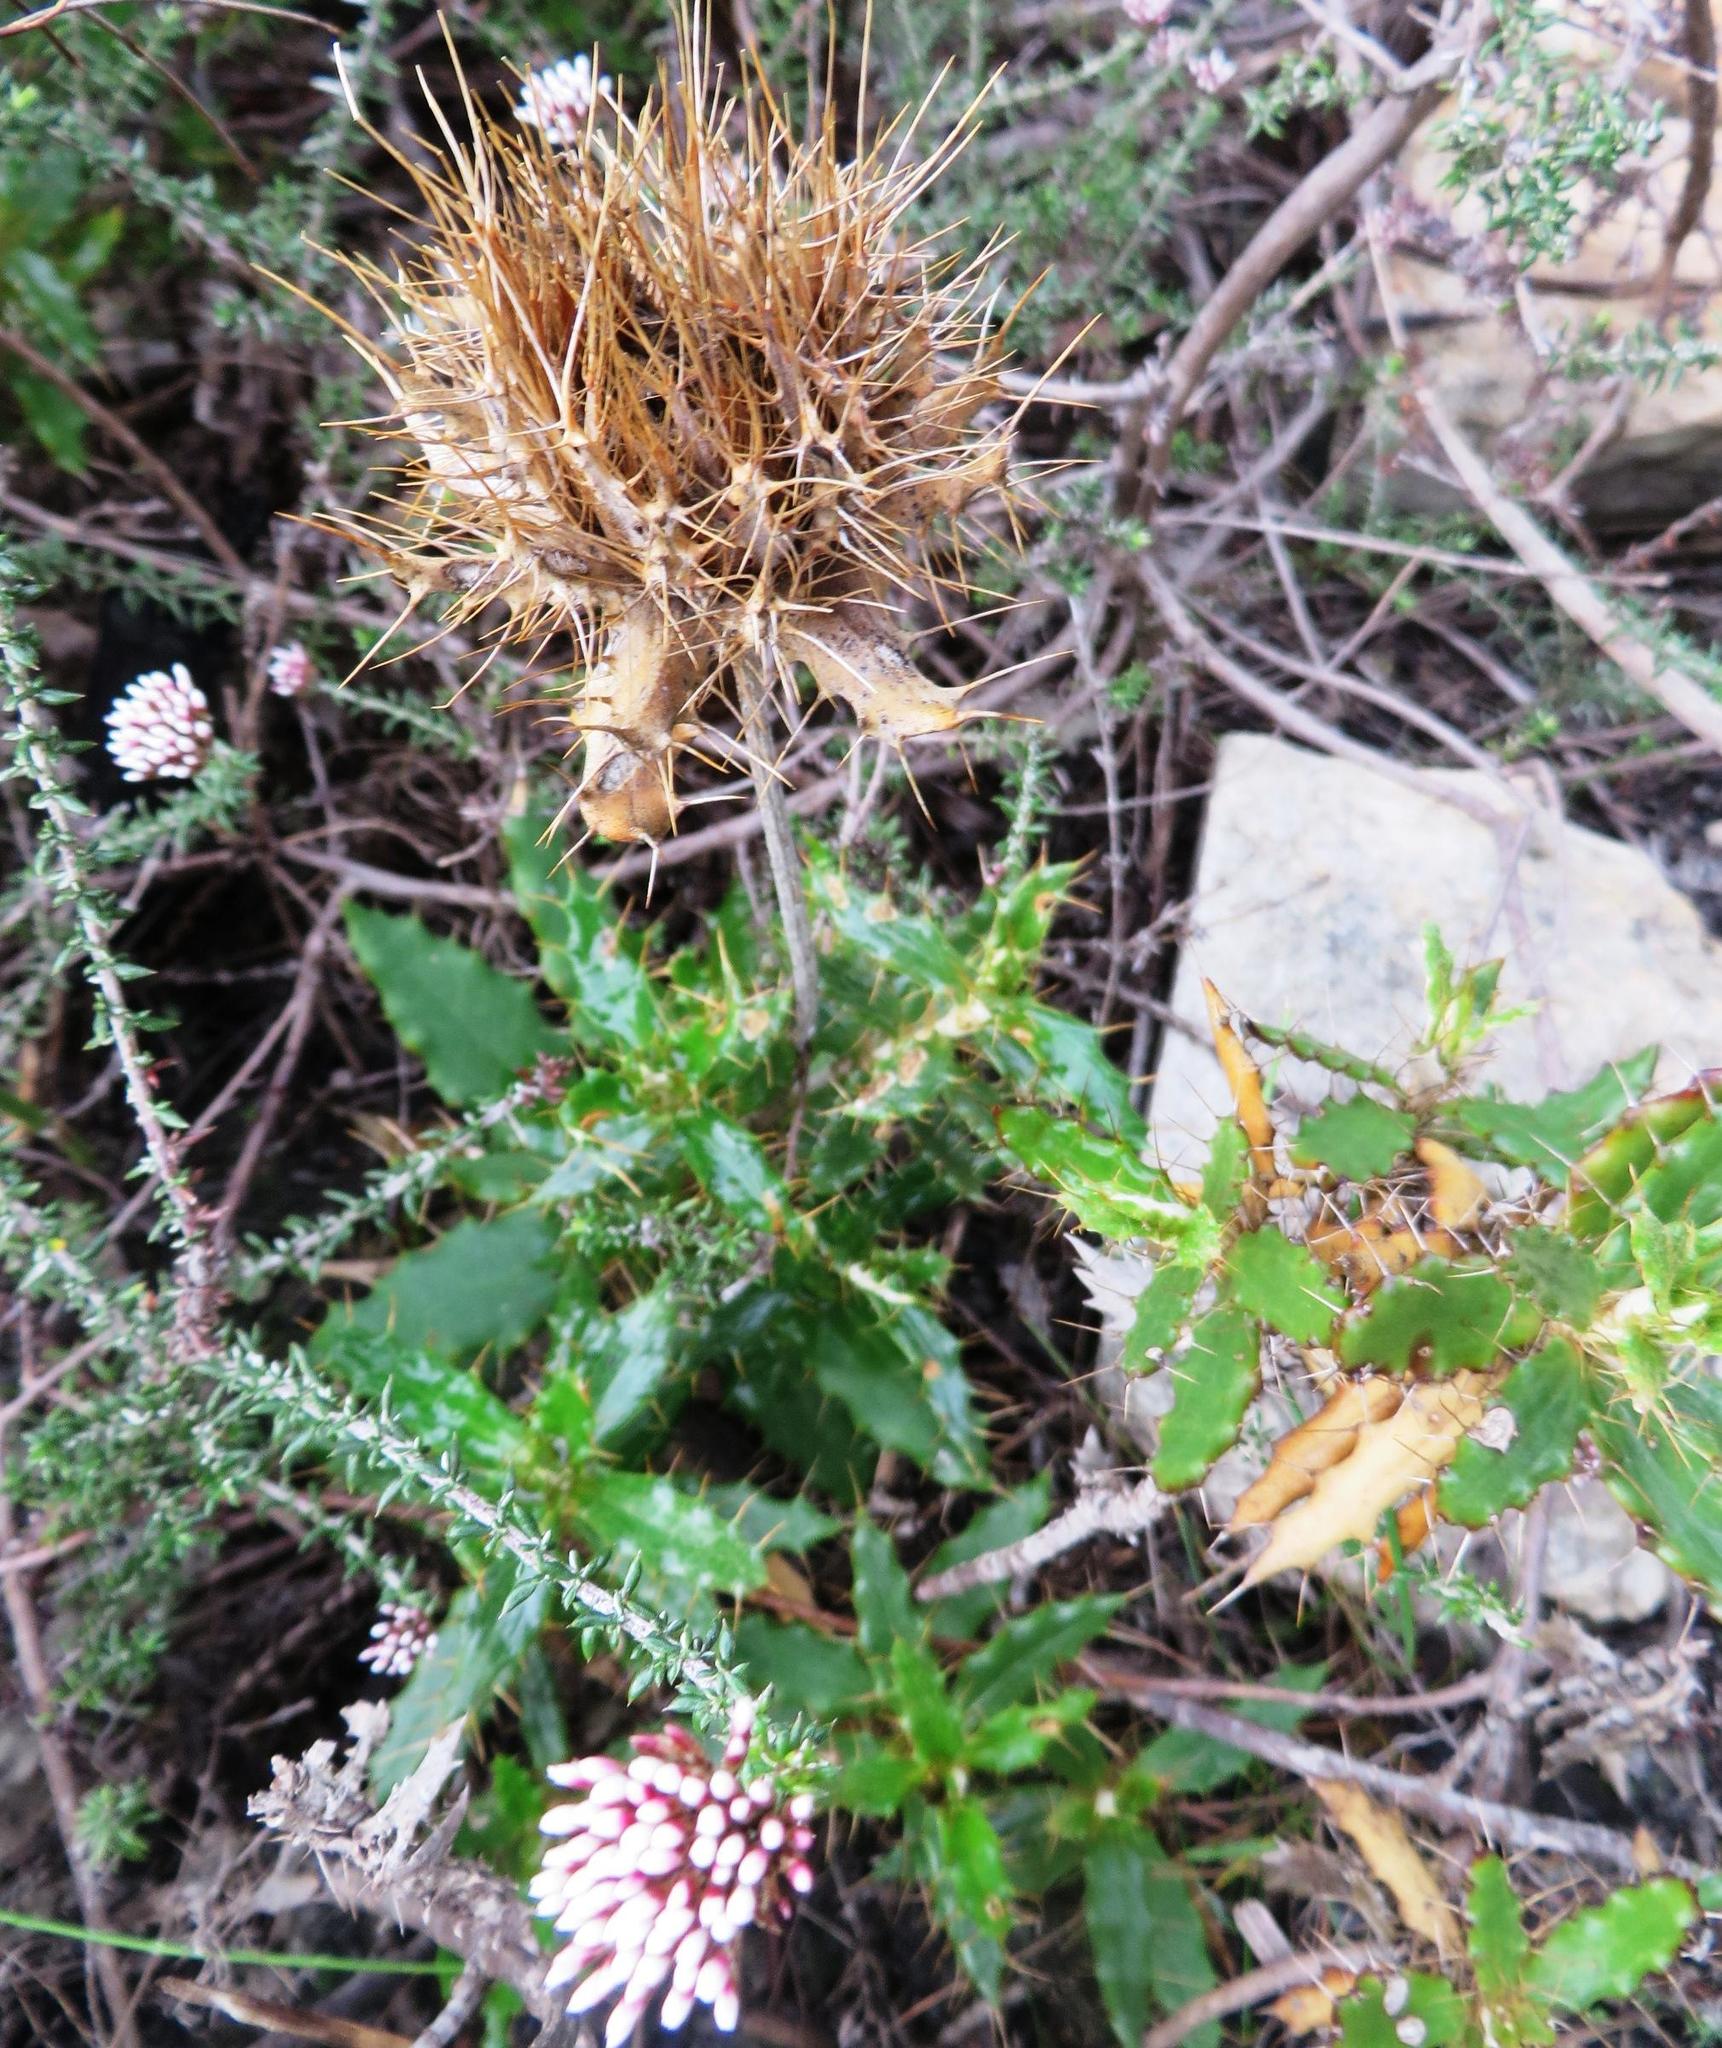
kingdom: Plantae
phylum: Tracheophyta
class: Magnoliopsida
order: Asterales
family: Asteraceae
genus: Berkheya
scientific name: Berkheya barbata
